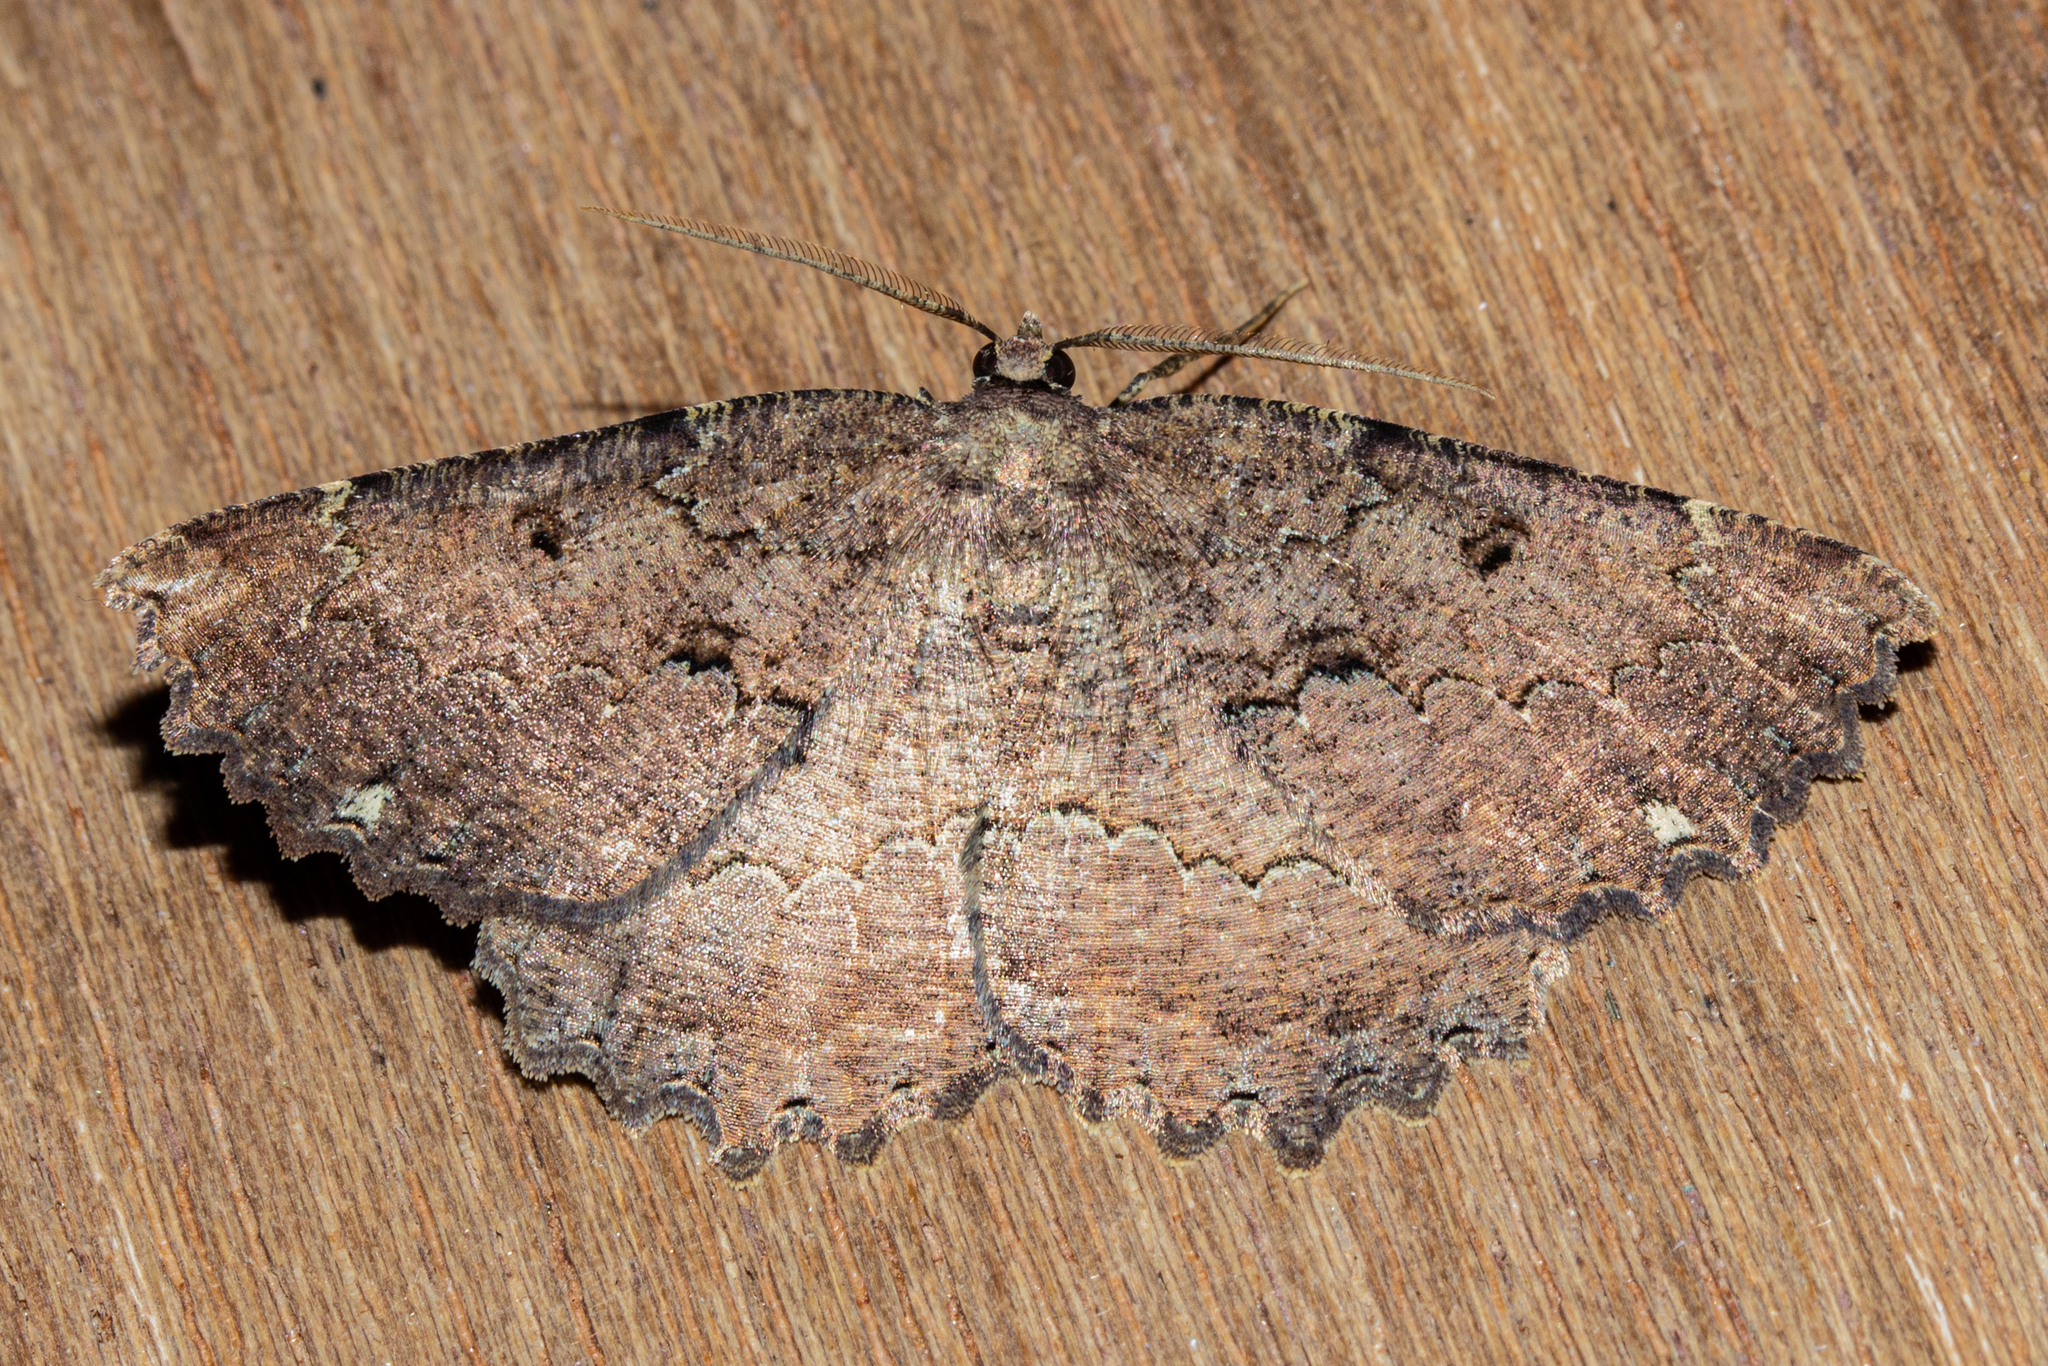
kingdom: Animalia
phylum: Arthropoda
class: Insecta
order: Lepidoptera
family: Geometridae
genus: Gellonia
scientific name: Gellonia pannularia
